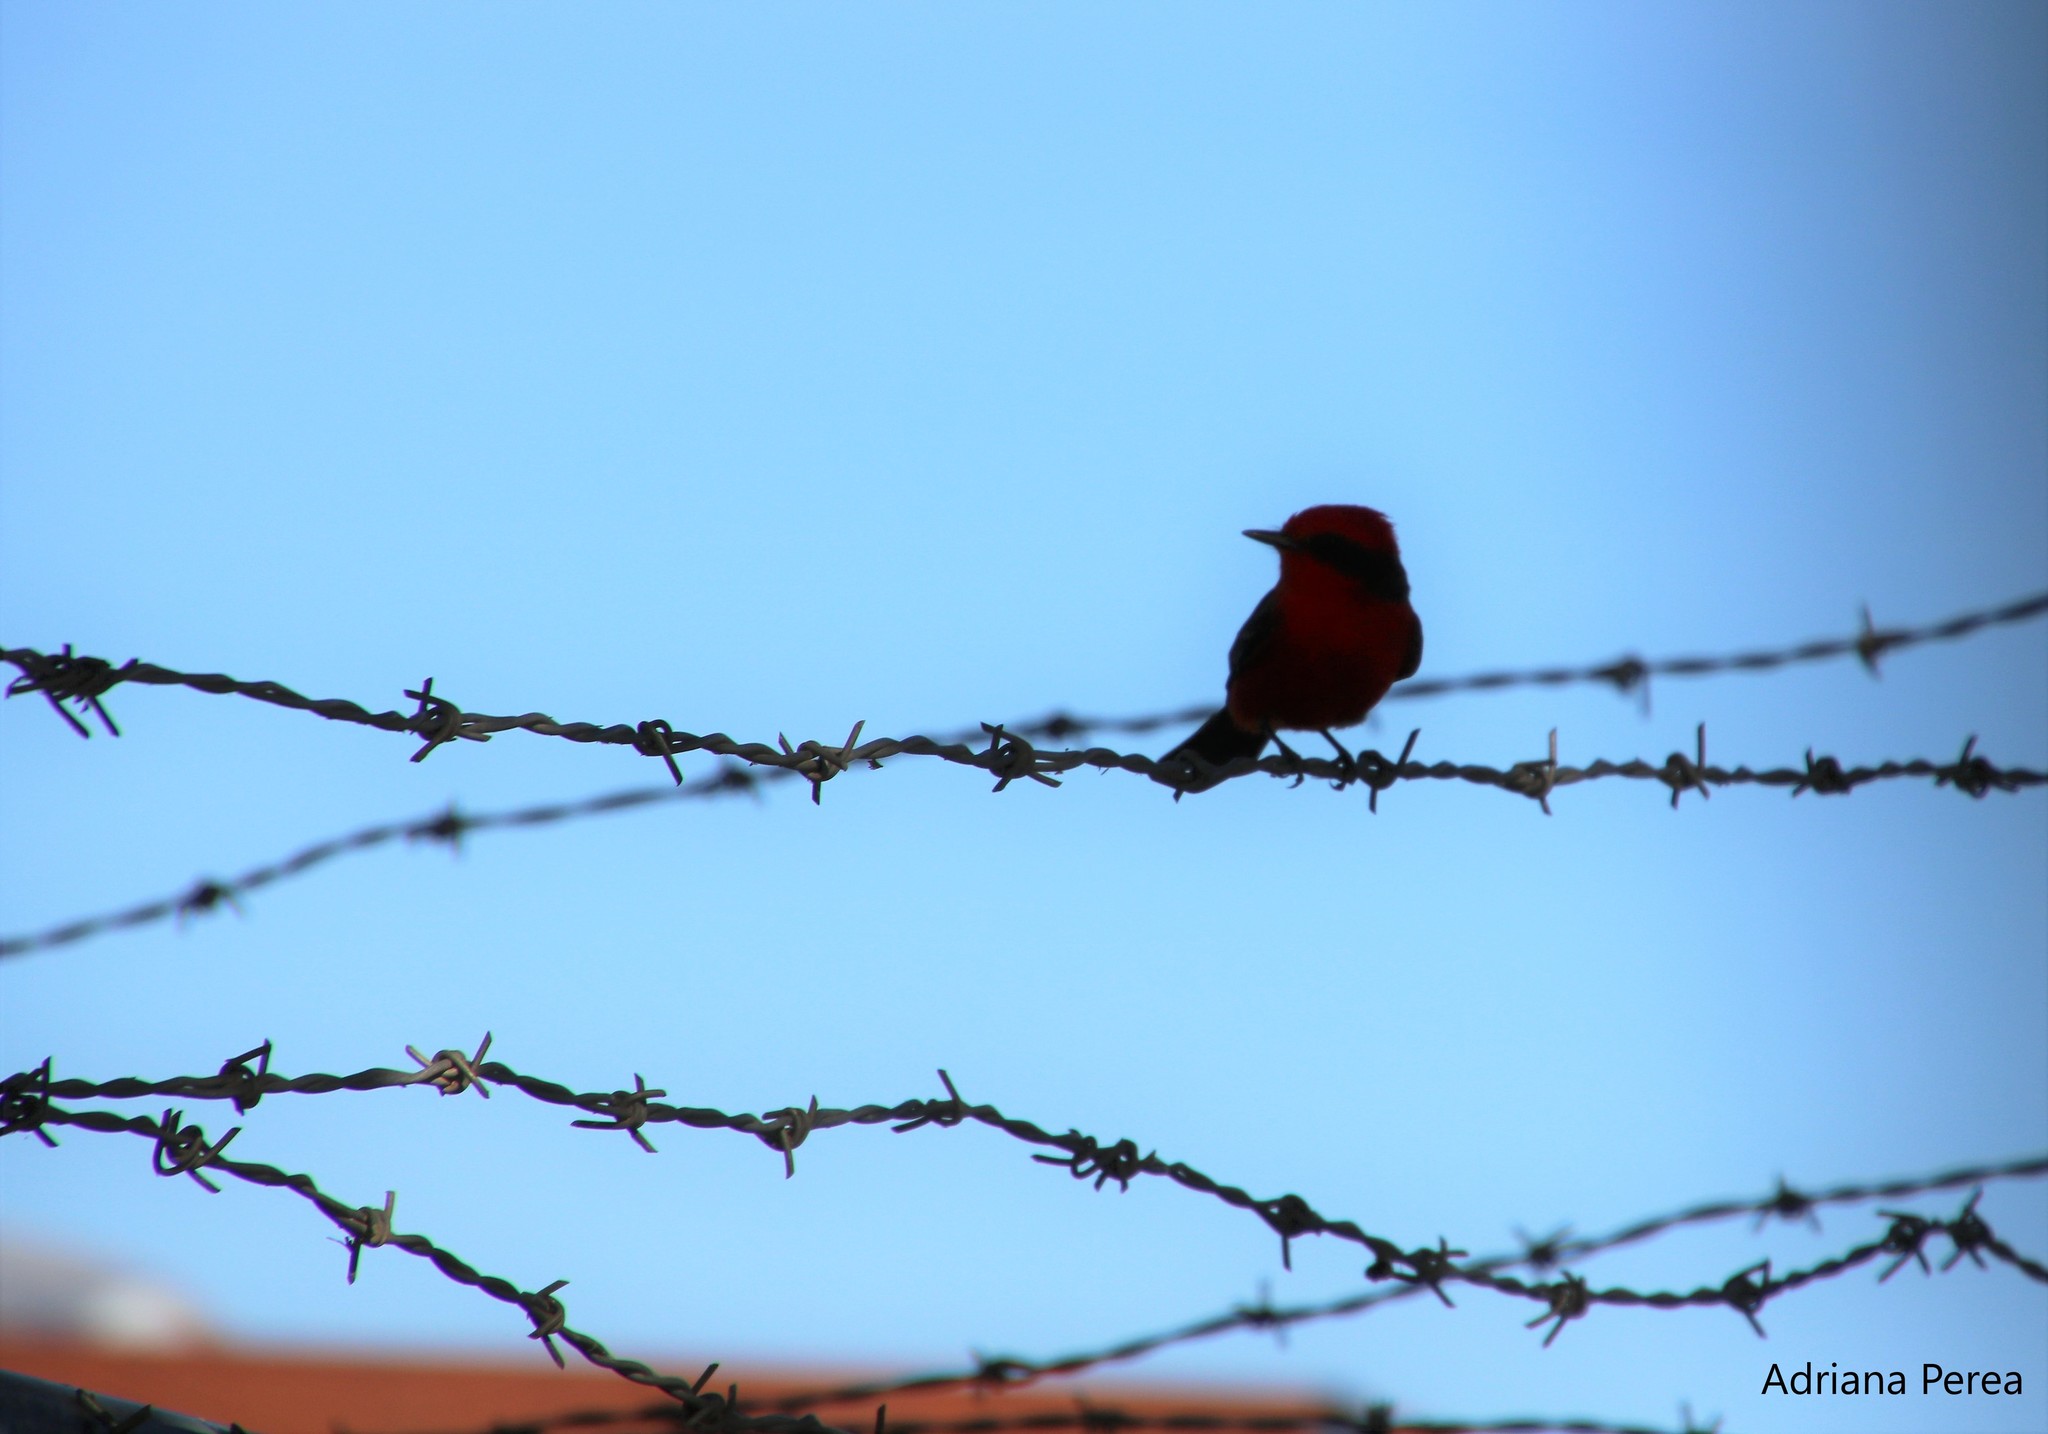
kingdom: Animalia
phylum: Chordata
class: Aves
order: Passeriformes
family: Tyrannidae
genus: Pyrocephalus
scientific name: Pyrocephalus rubinus
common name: Vermilion flycatcher
